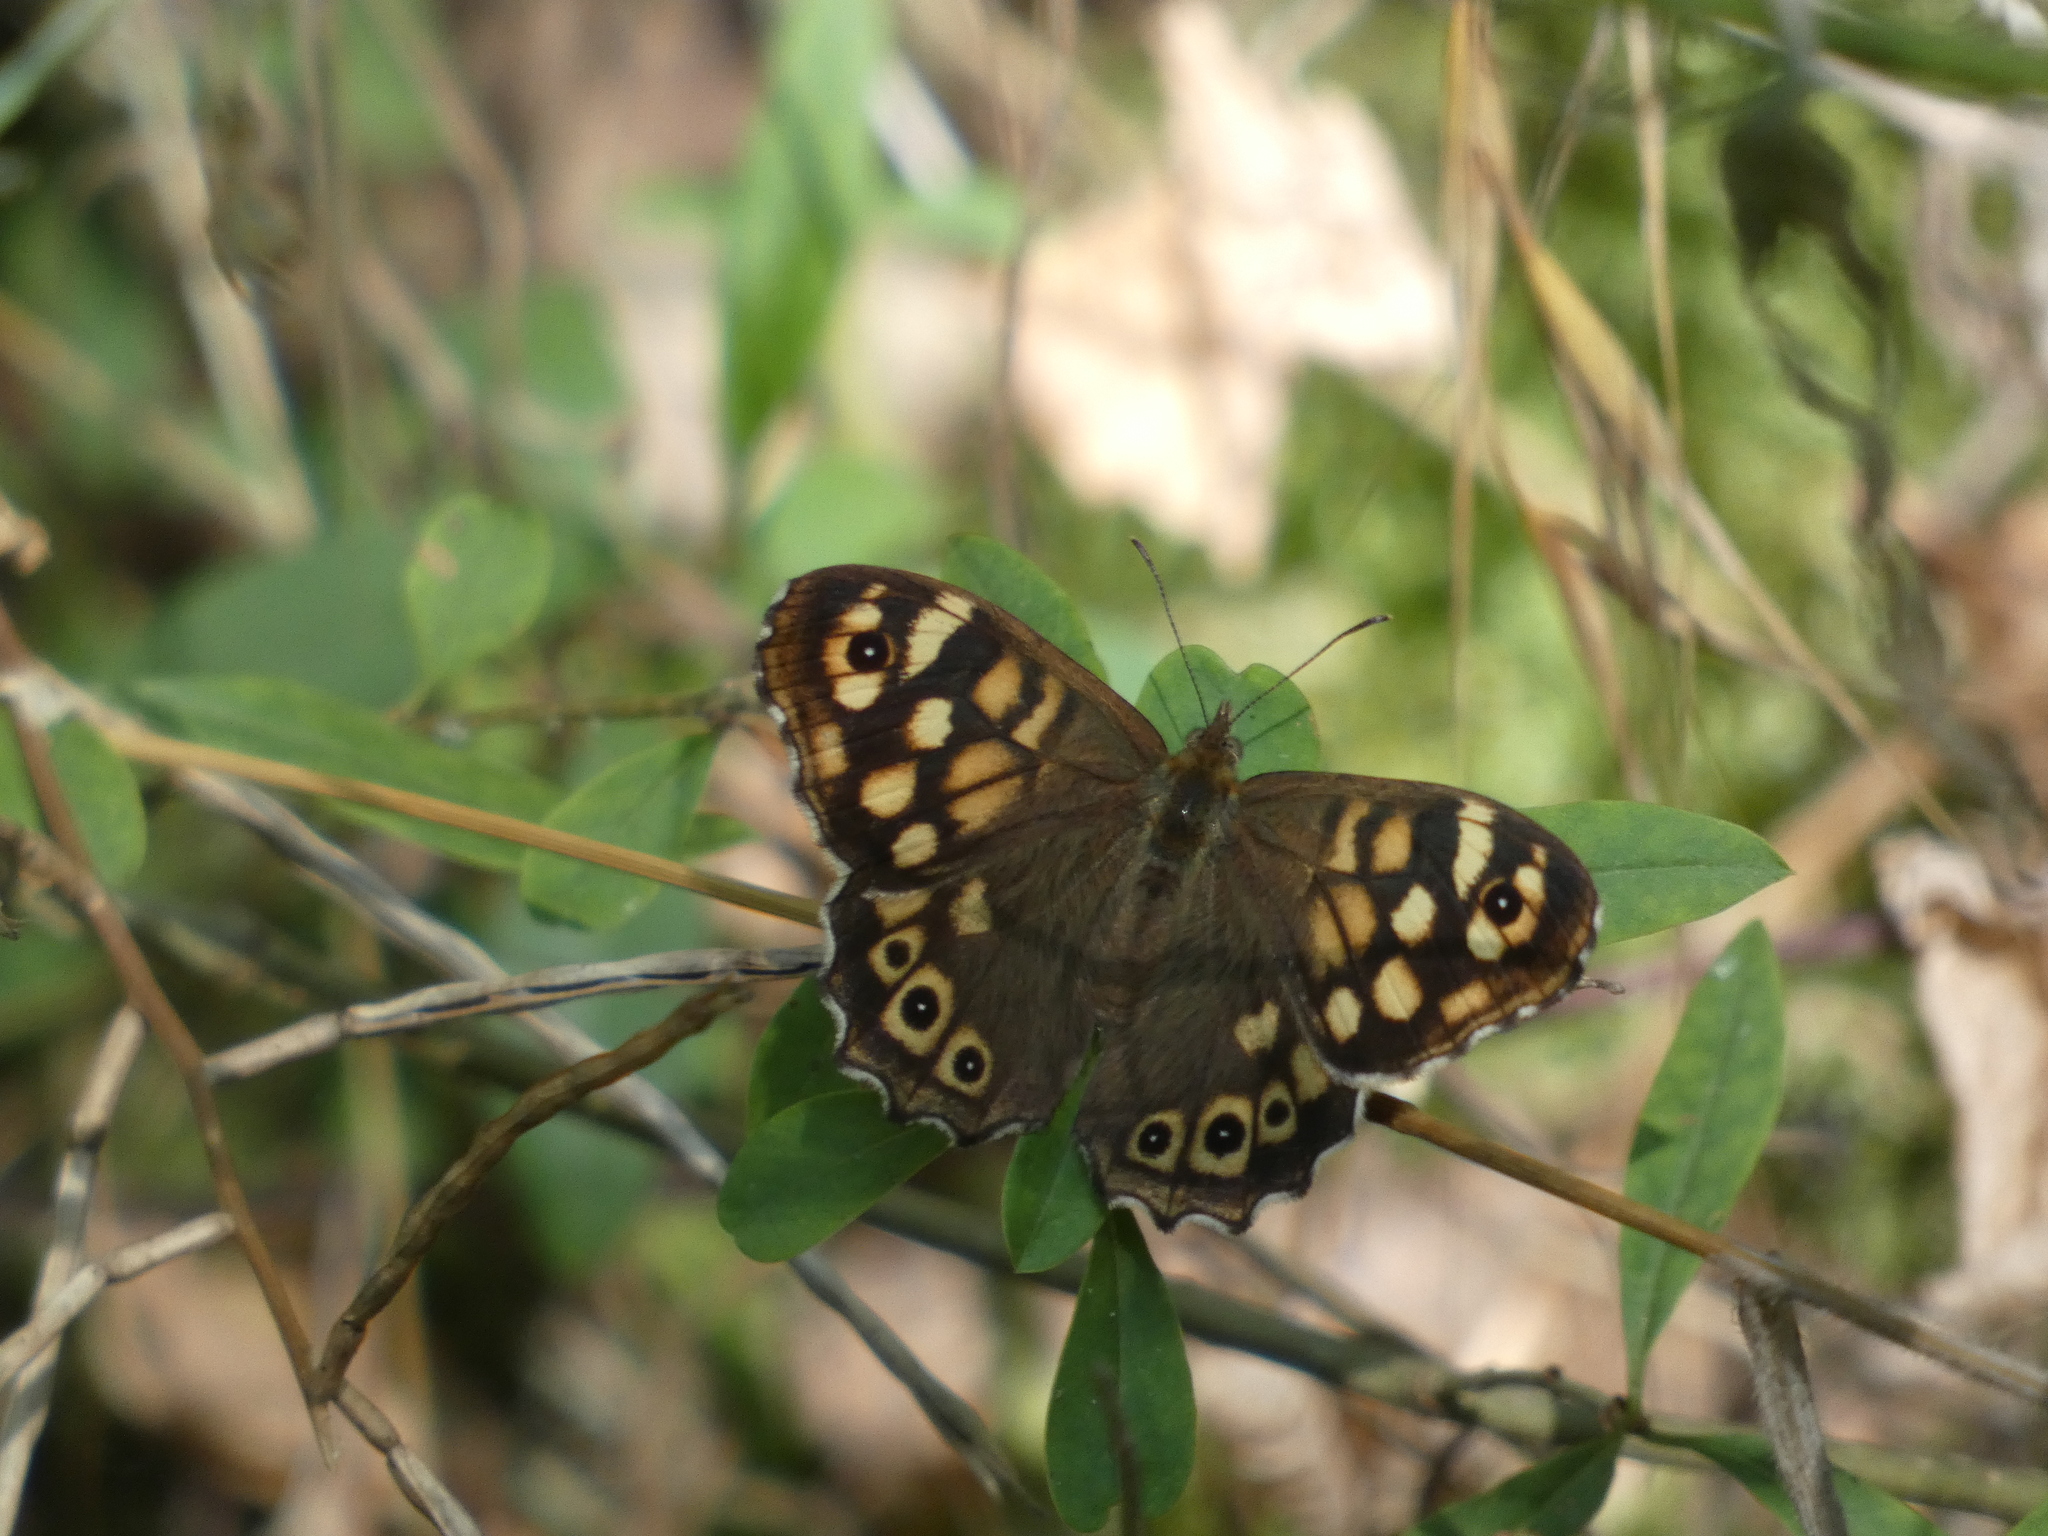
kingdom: Animalia
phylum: Arthropoda
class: Insecta
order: Lepidoptera
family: Nymphalidae
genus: Pararge
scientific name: Pararge aegeria
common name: Speckled wood
